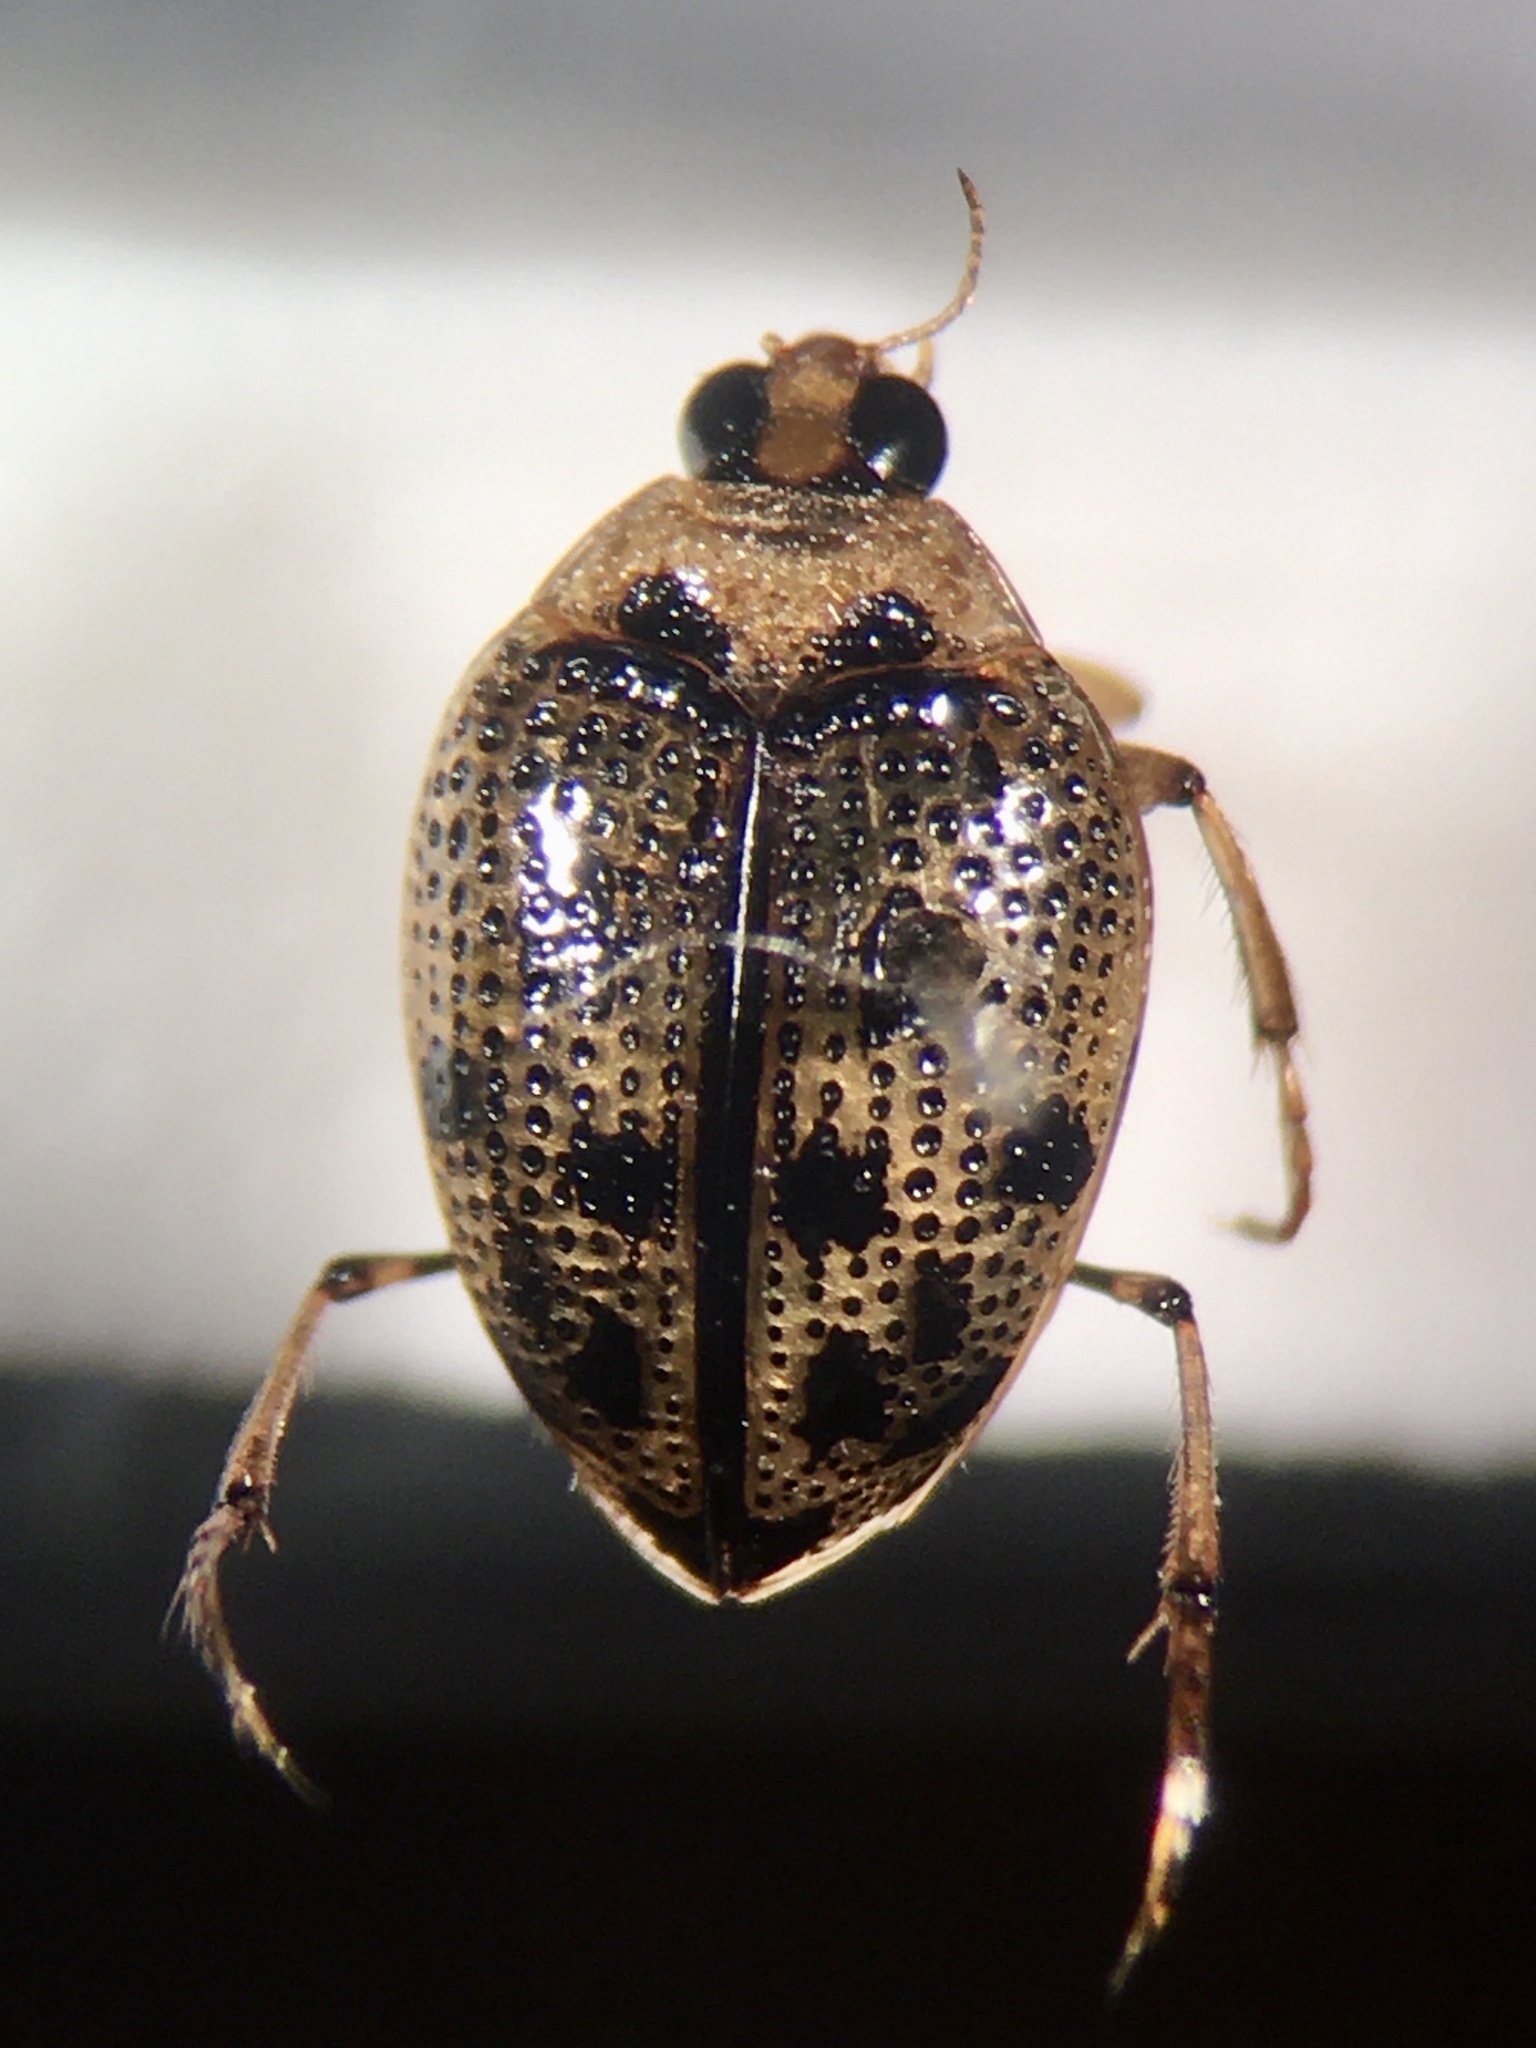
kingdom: Animalia
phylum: Arthropoda
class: Insecta
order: Coleoptera
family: Haliplidae
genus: Peltodytes
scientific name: Peltodytes edentulus
